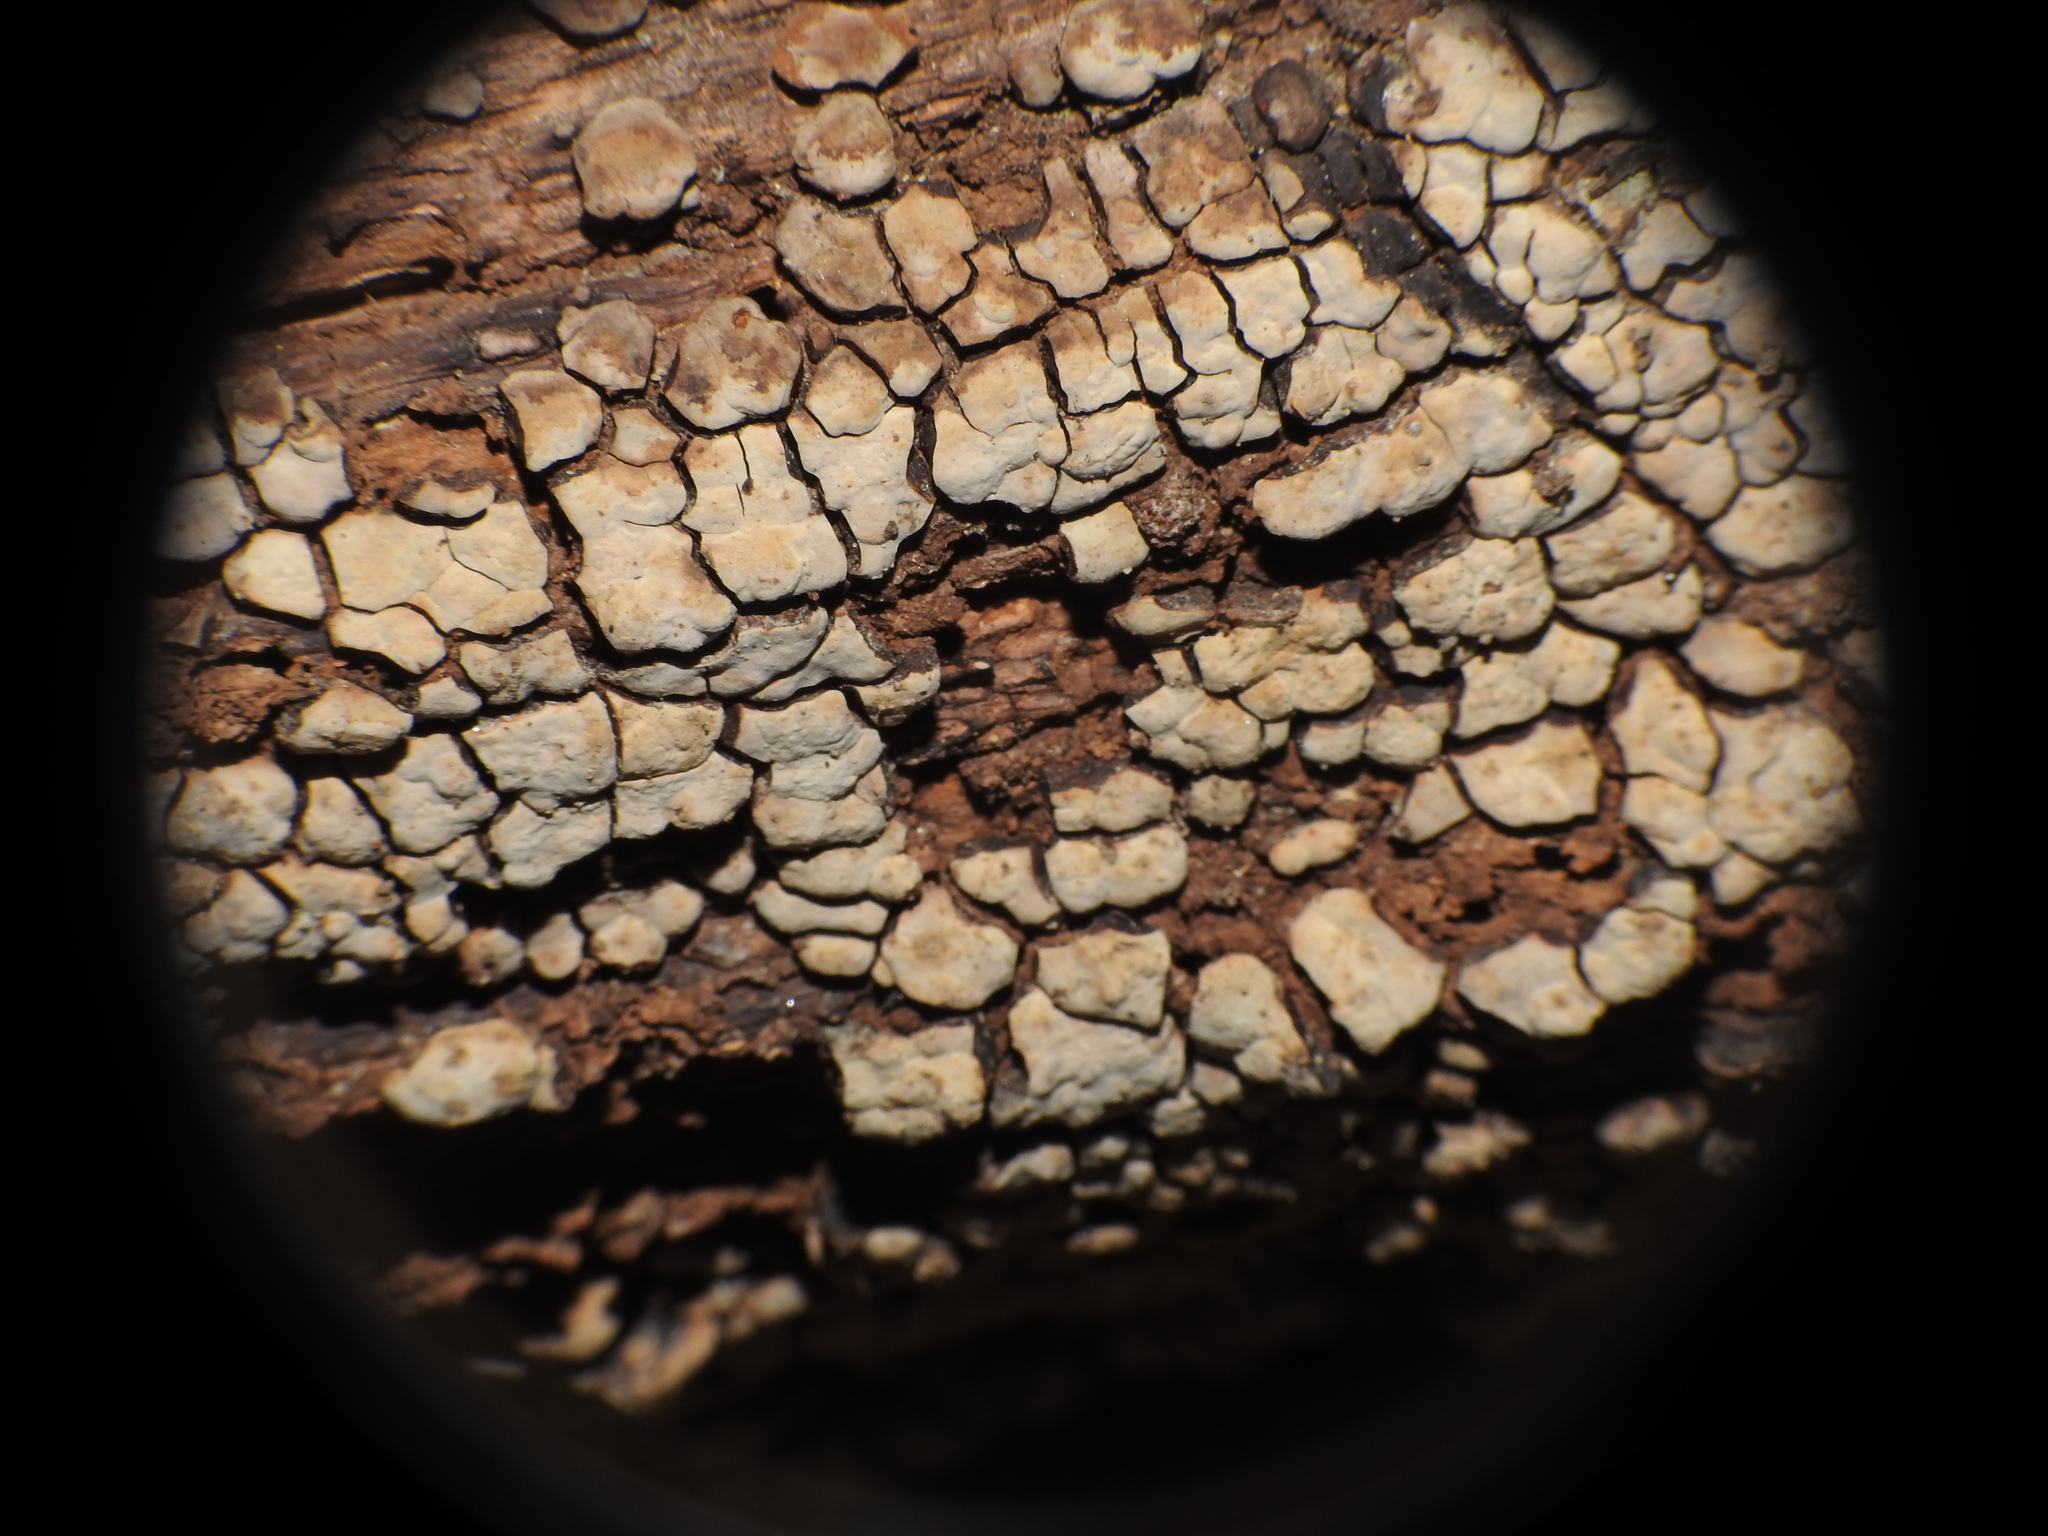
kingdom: Fungi
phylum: Basidiomycota
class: Agaricomycetes
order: Russulales
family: Stereaceae
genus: Xylobolus
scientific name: Xylobolus frustulatus
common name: Ceramic parchment
